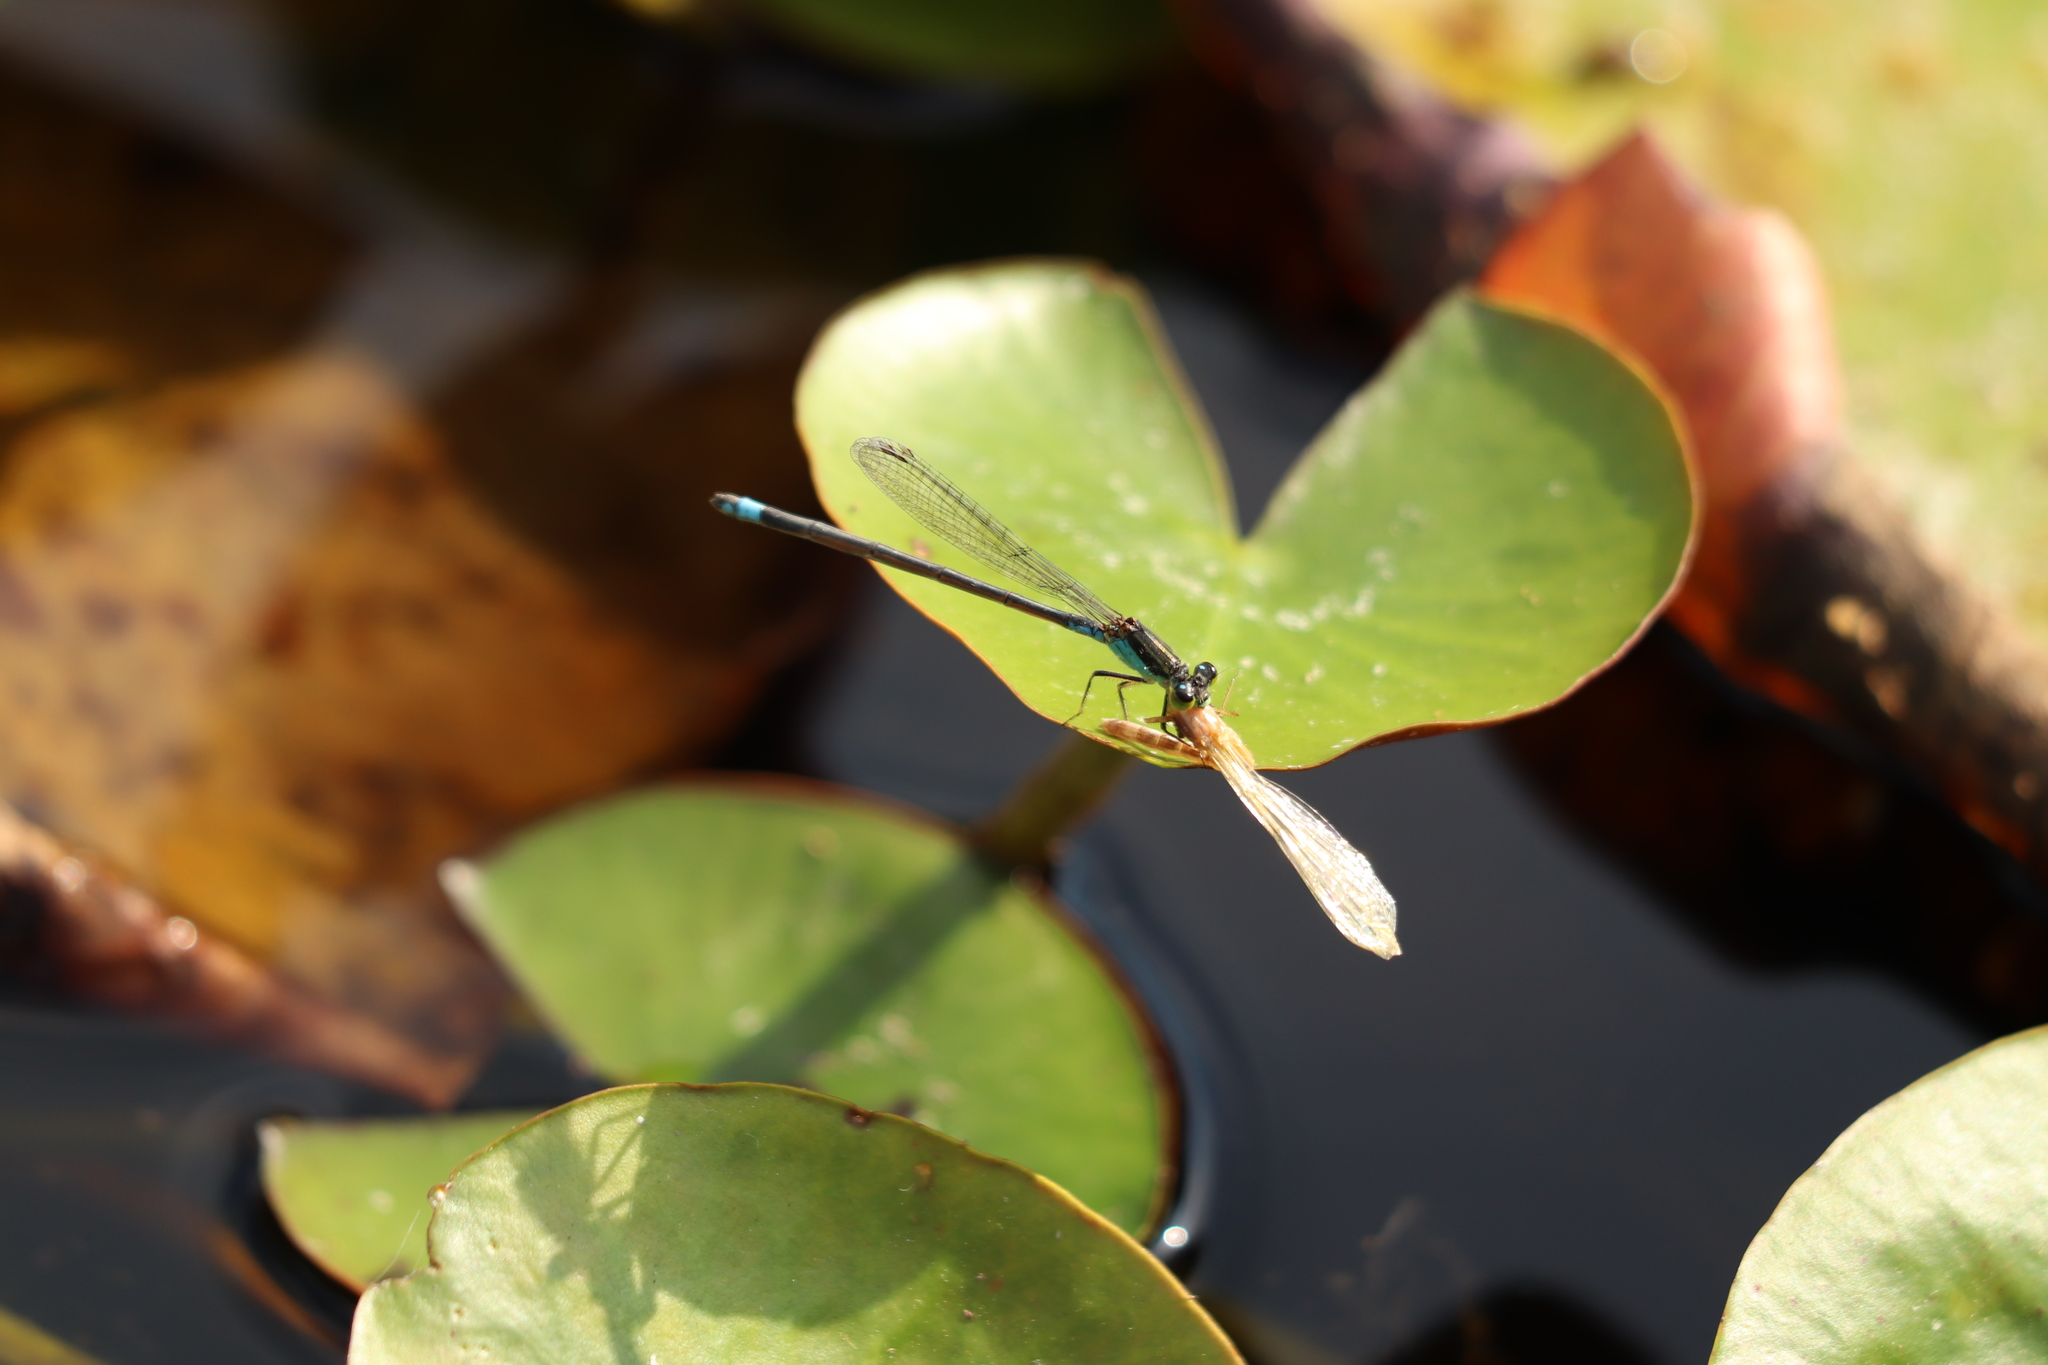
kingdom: Animalia
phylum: Arthropoda
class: Insecta
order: Odonata
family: Coenagrionidae
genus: Ischnura
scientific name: Ischnura senegalensis
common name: Tropical bluetail
